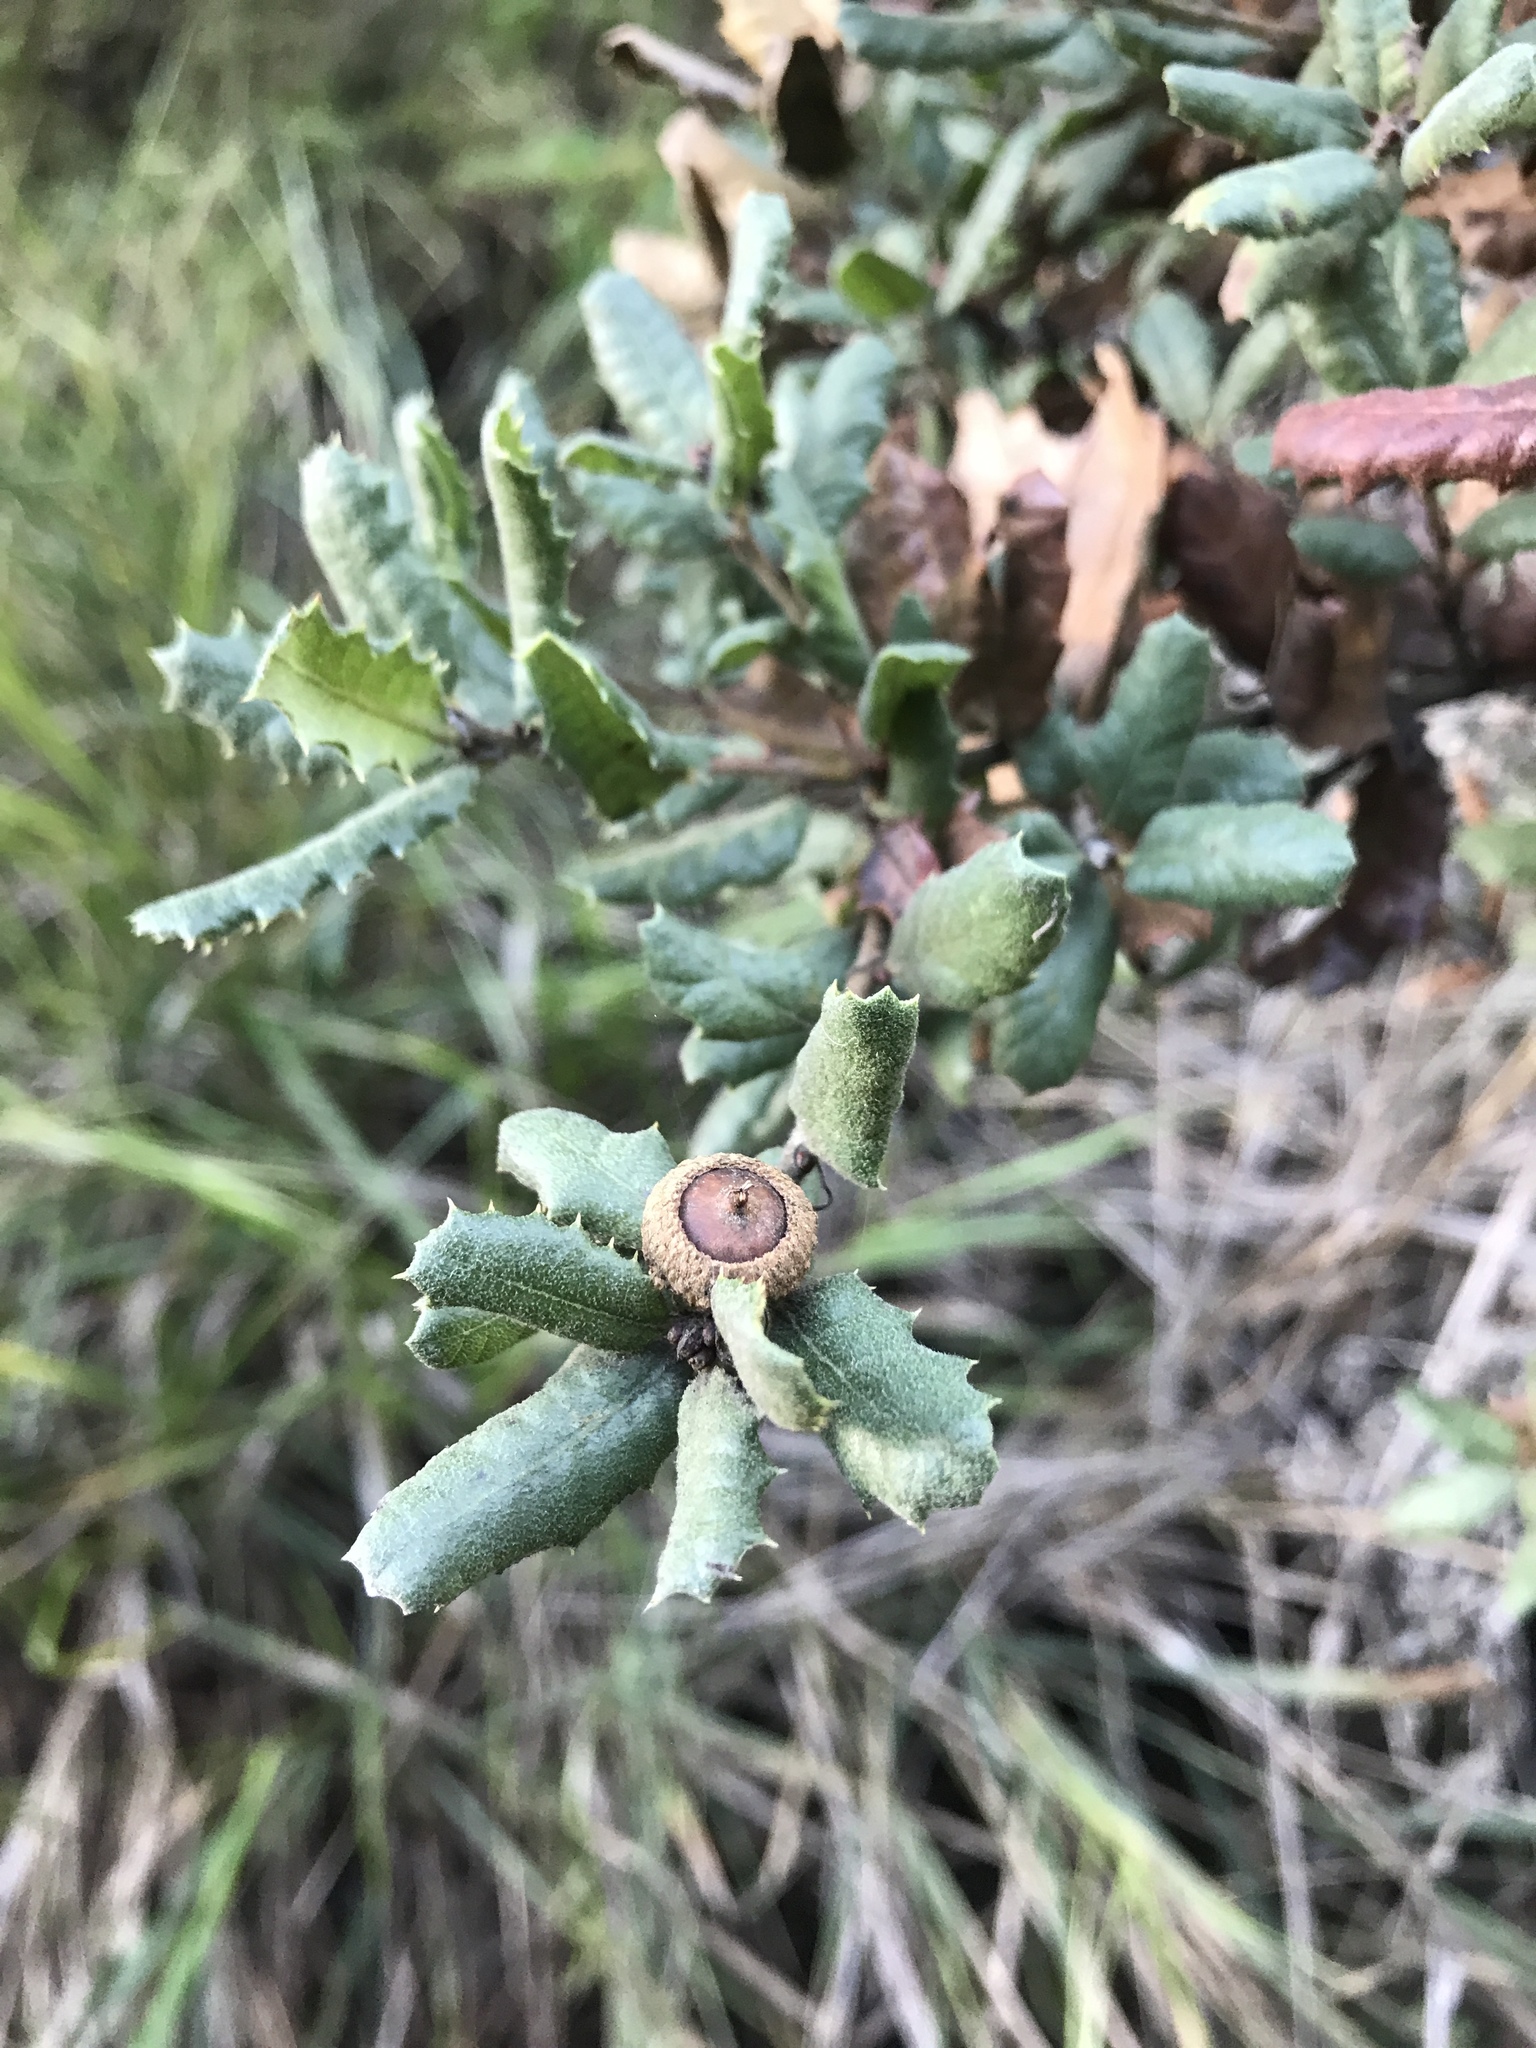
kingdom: Plantae
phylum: Tracheophyta
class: Magnoliopsida
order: Fagales
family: Fagaceae
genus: Quercus
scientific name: Quercus durata
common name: Leather oak
